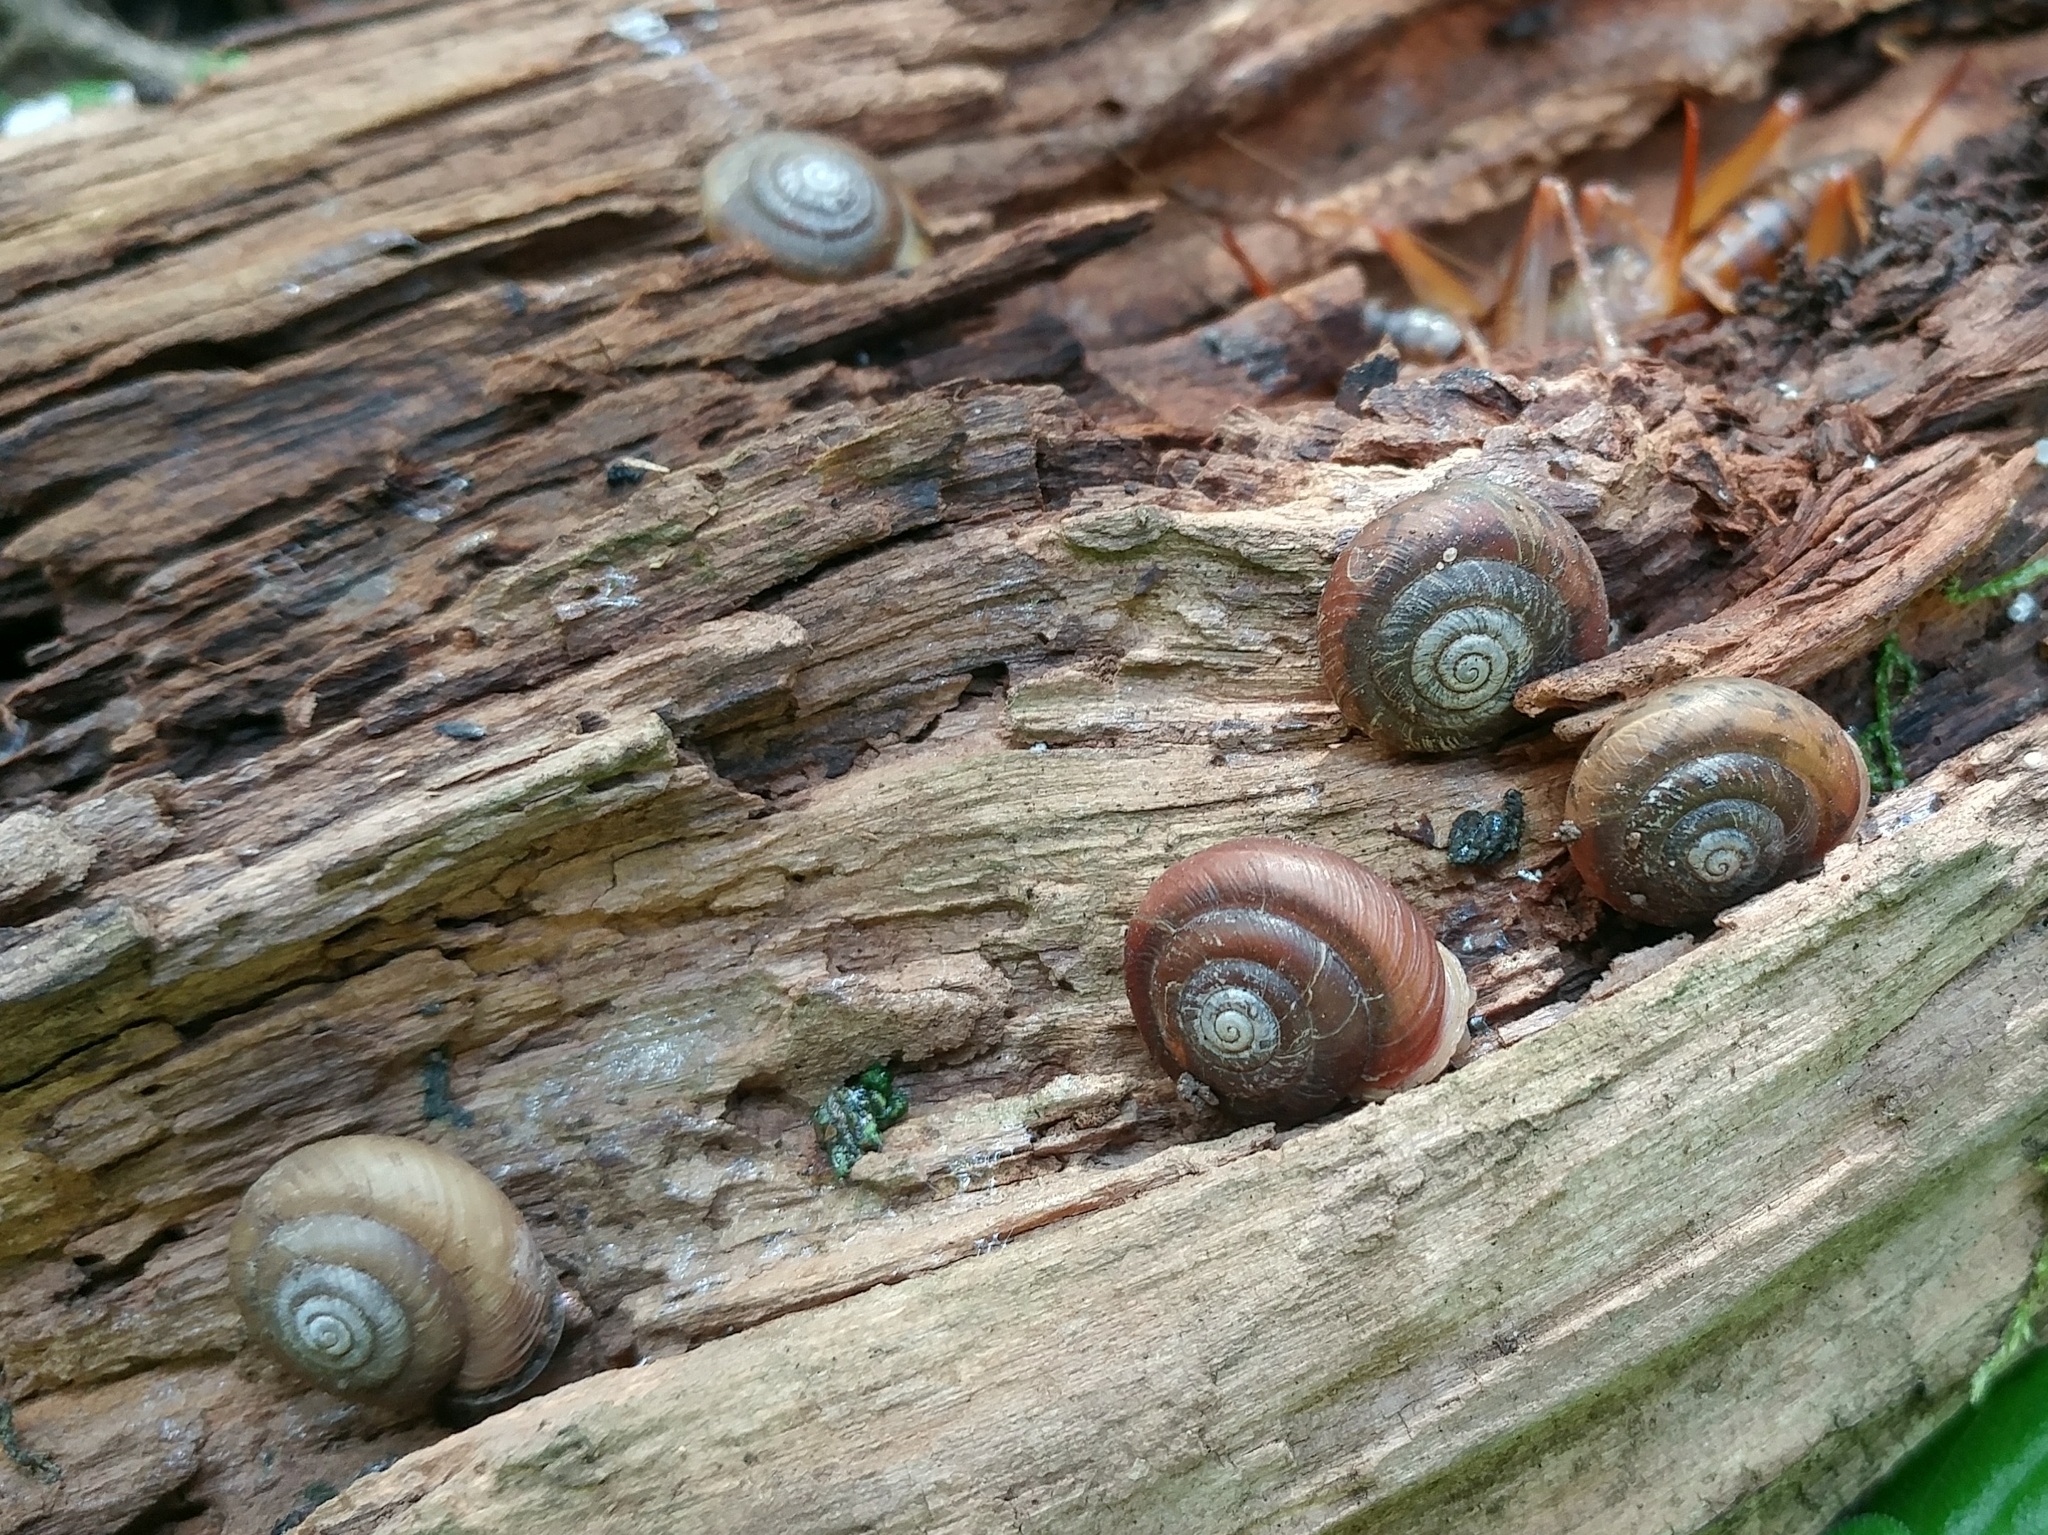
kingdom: Animalia
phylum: Mollusca
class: Gastropoda
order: Stylommatophora
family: Polygyridae
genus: Ashmunella
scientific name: Ashmunella rhyssa
